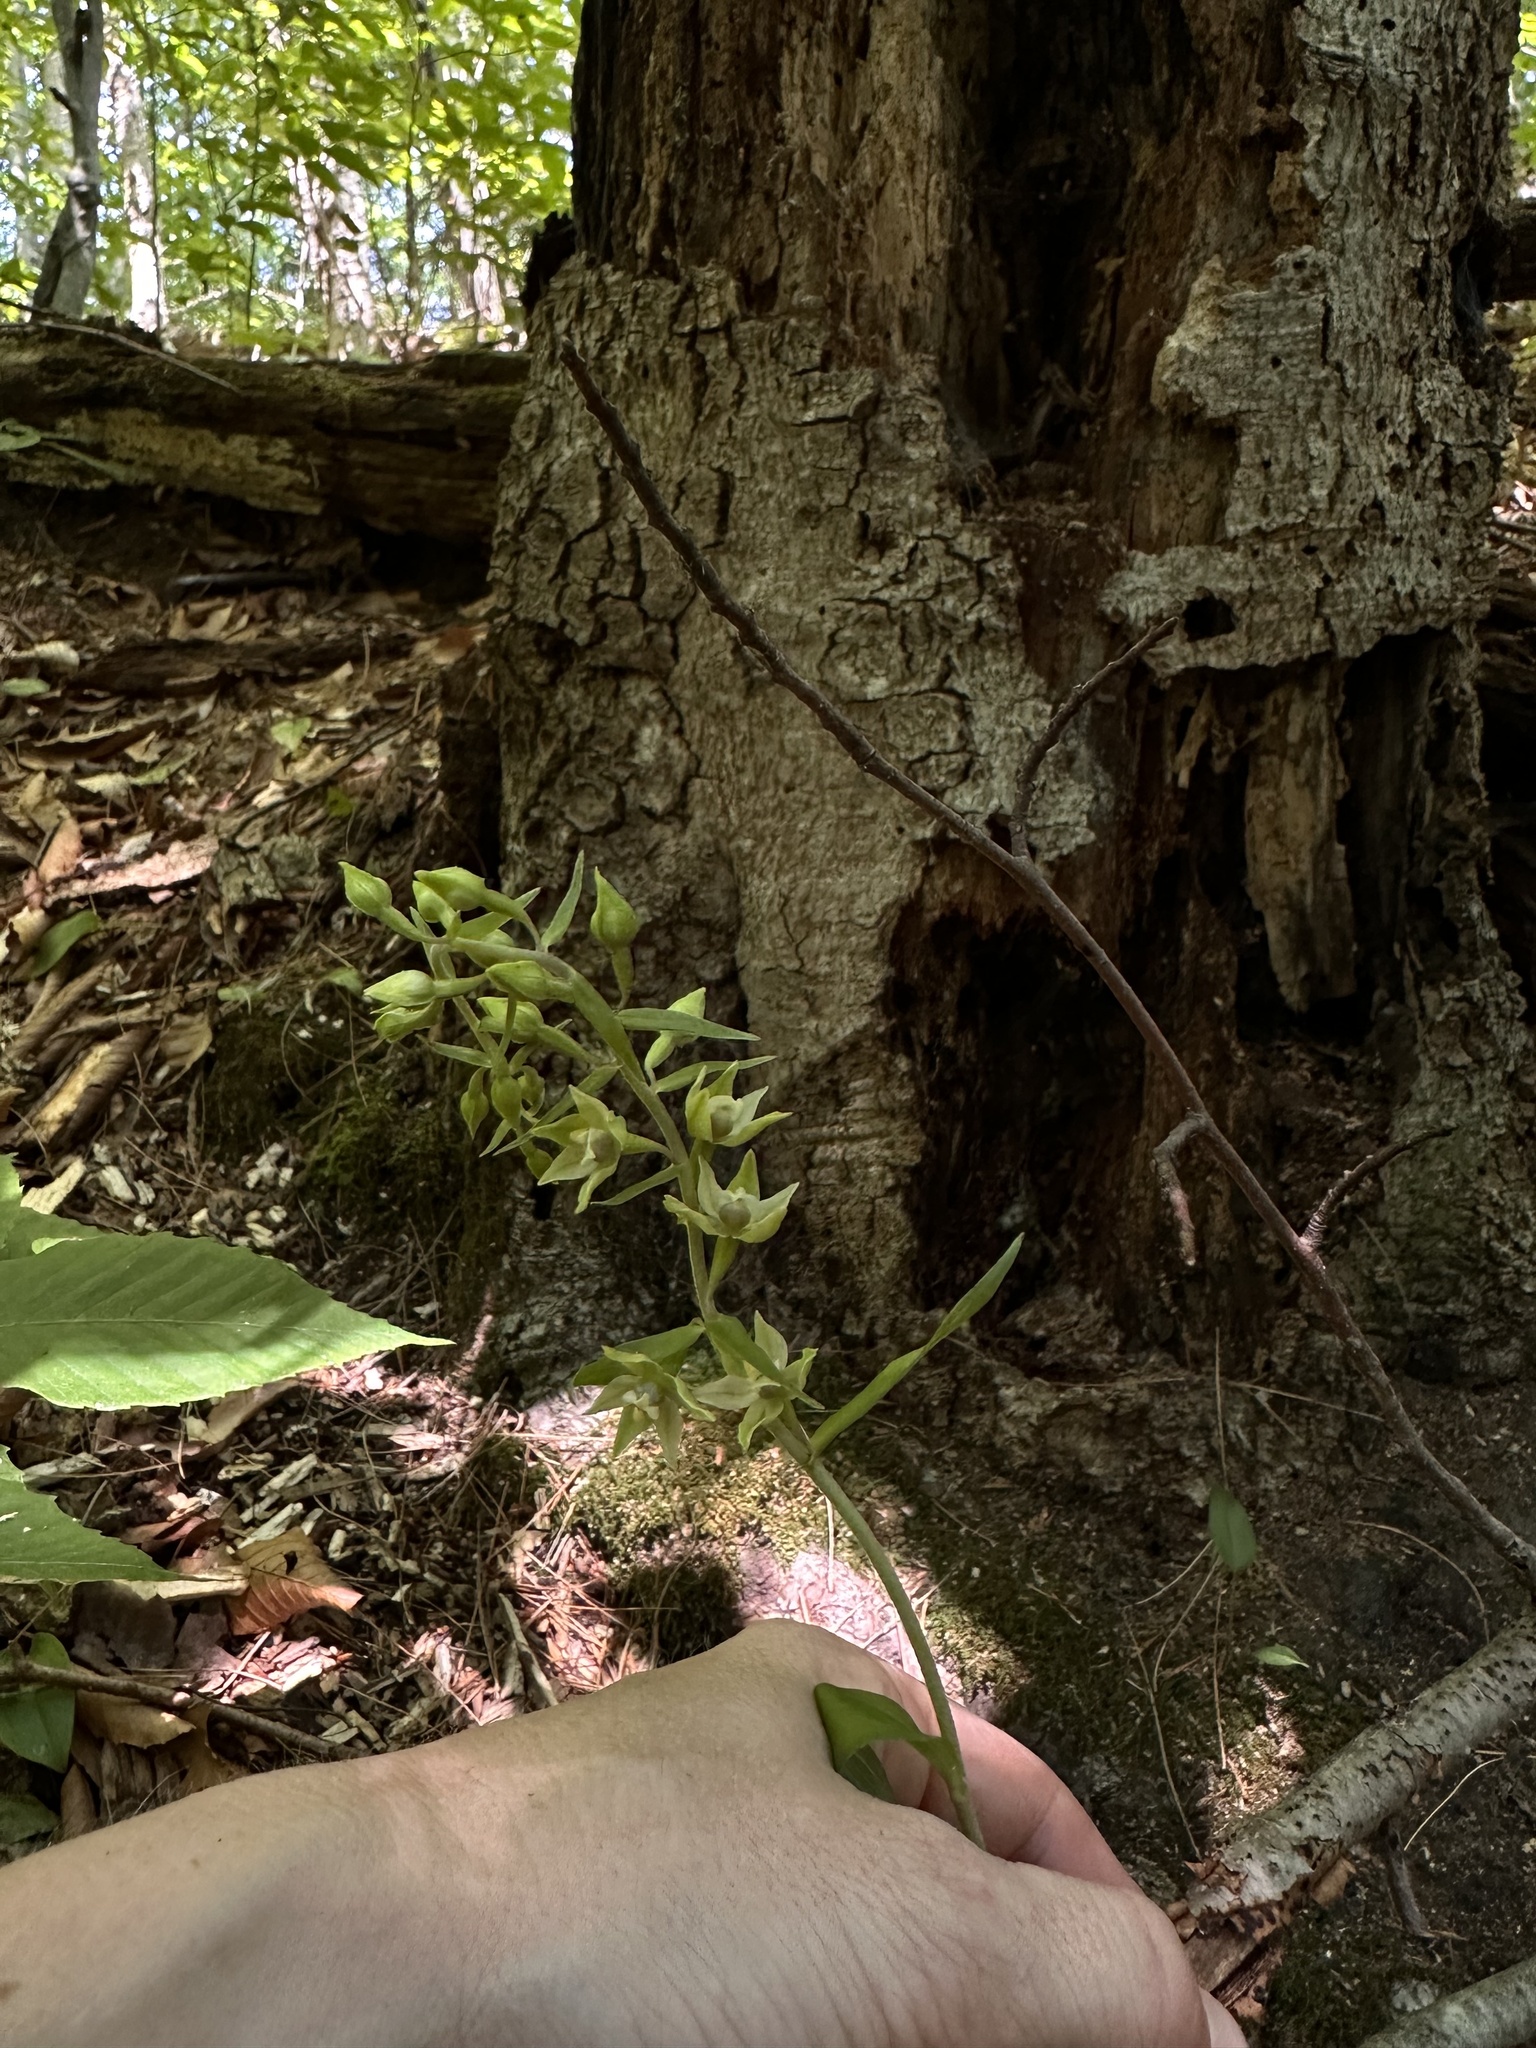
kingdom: Plantae
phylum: Tracheophyta
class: Liliopsida
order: Asparagales
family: Orchidaceae
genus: Epipactis
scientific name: Epipactis helleborine
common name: Broad-leaved helleborine
